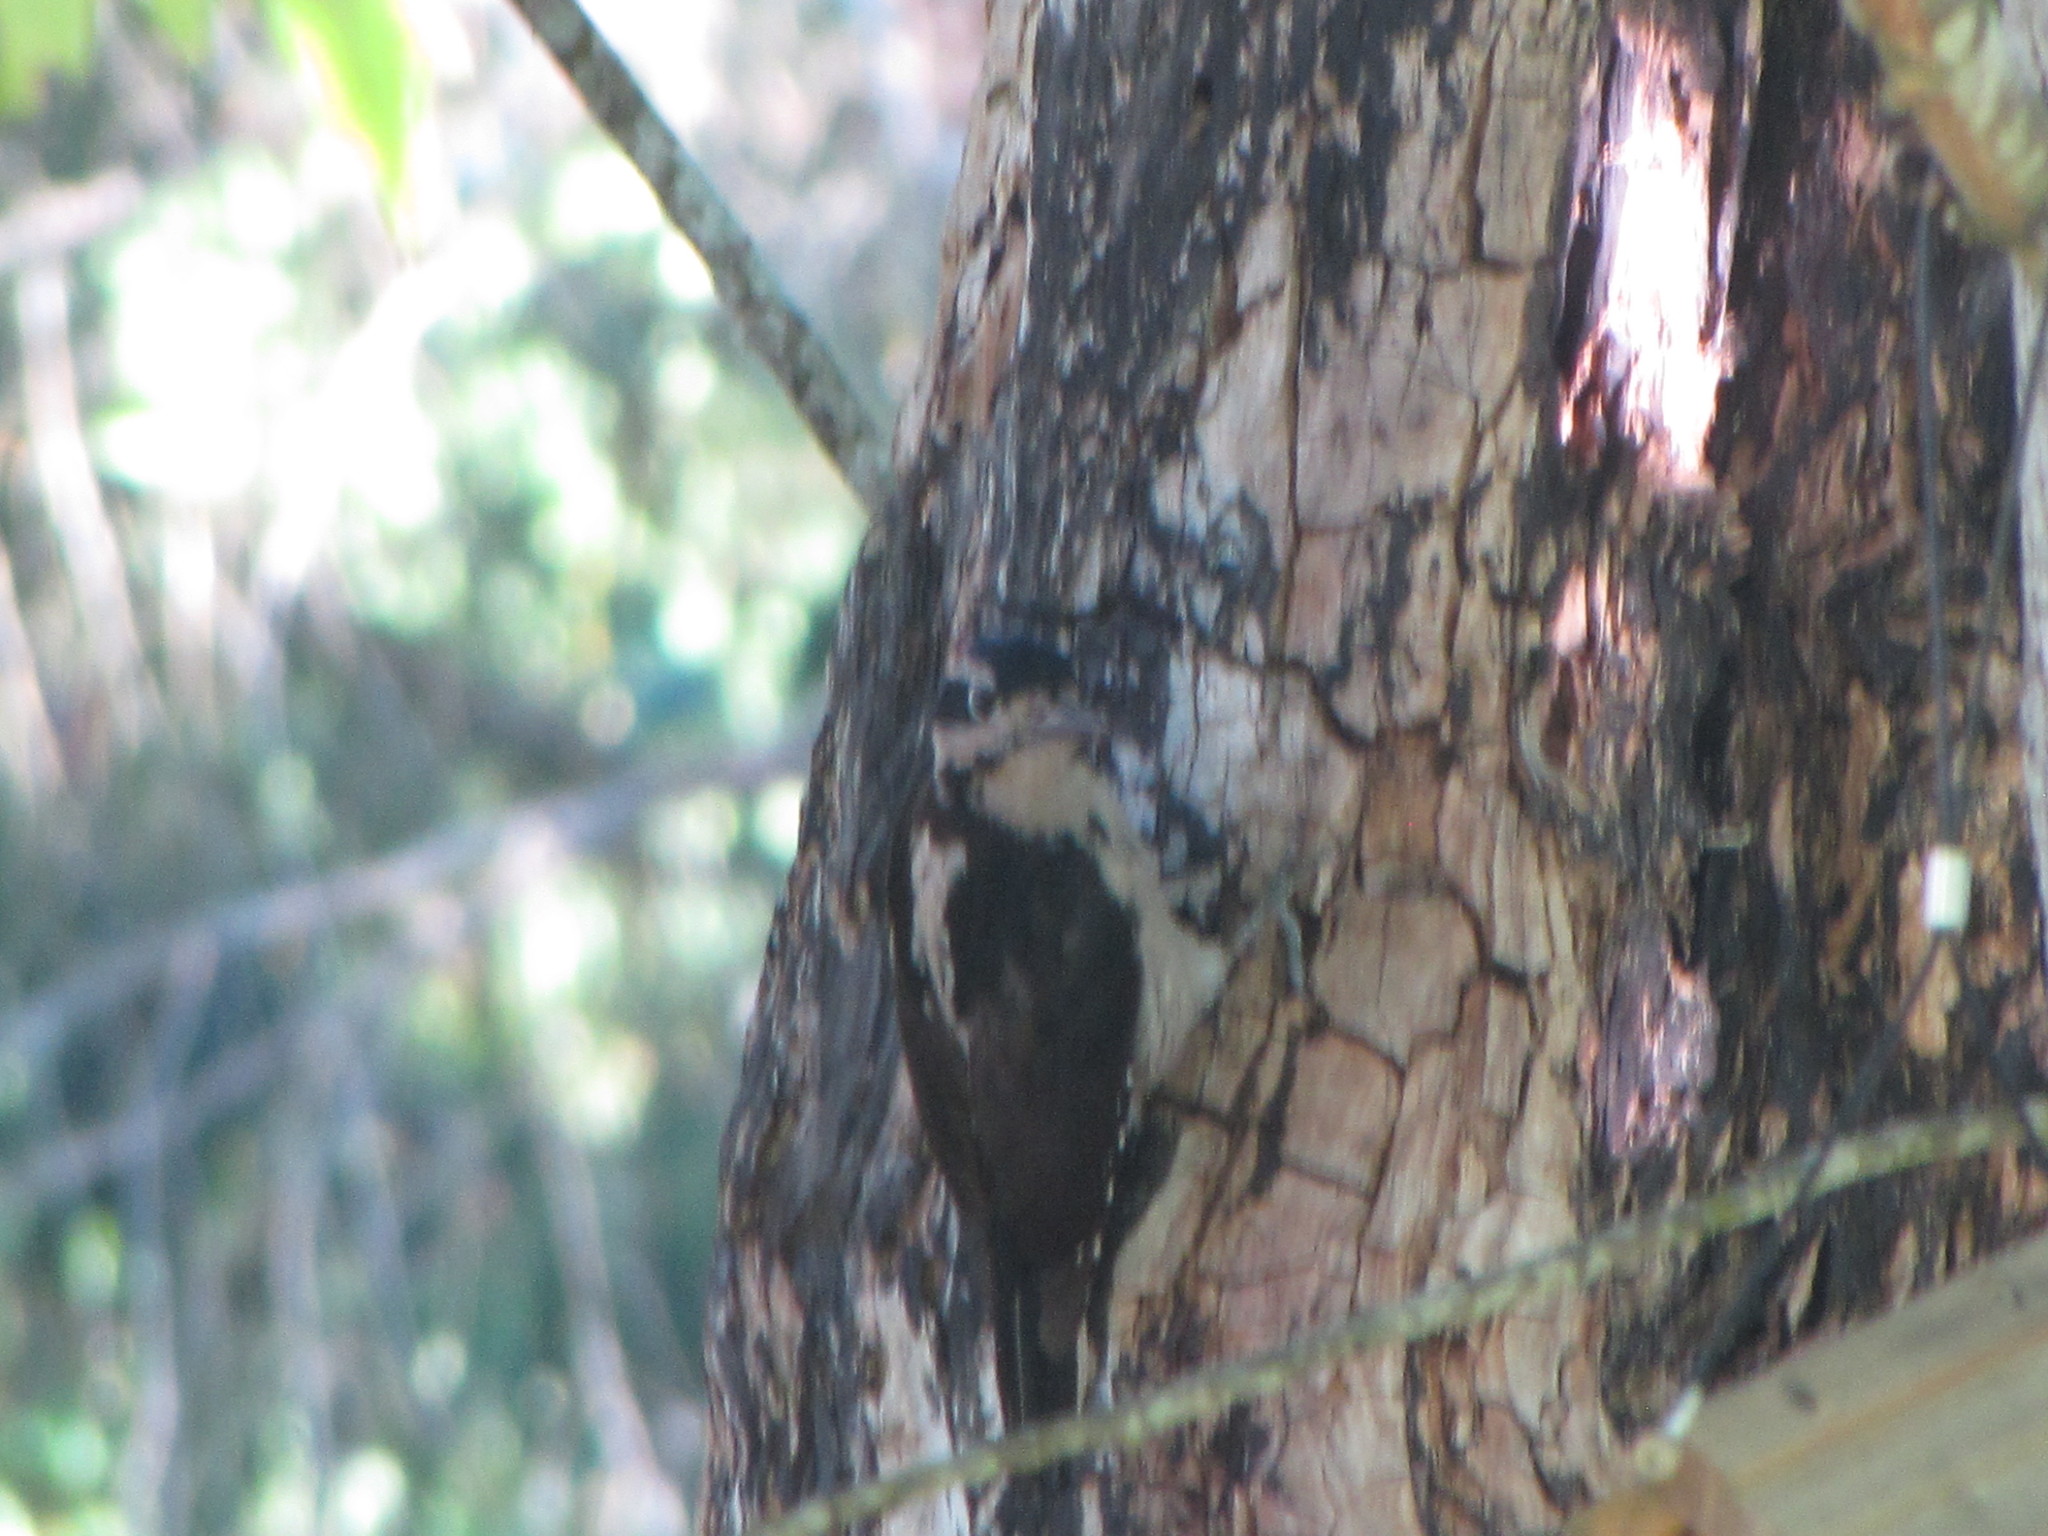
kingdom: Animalia
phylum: Chordata
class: Aves
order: Piciformes
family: Picidae
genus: Leuconotopicus
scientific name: Leuconotopicus villosus
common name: Hairy woodpecker
